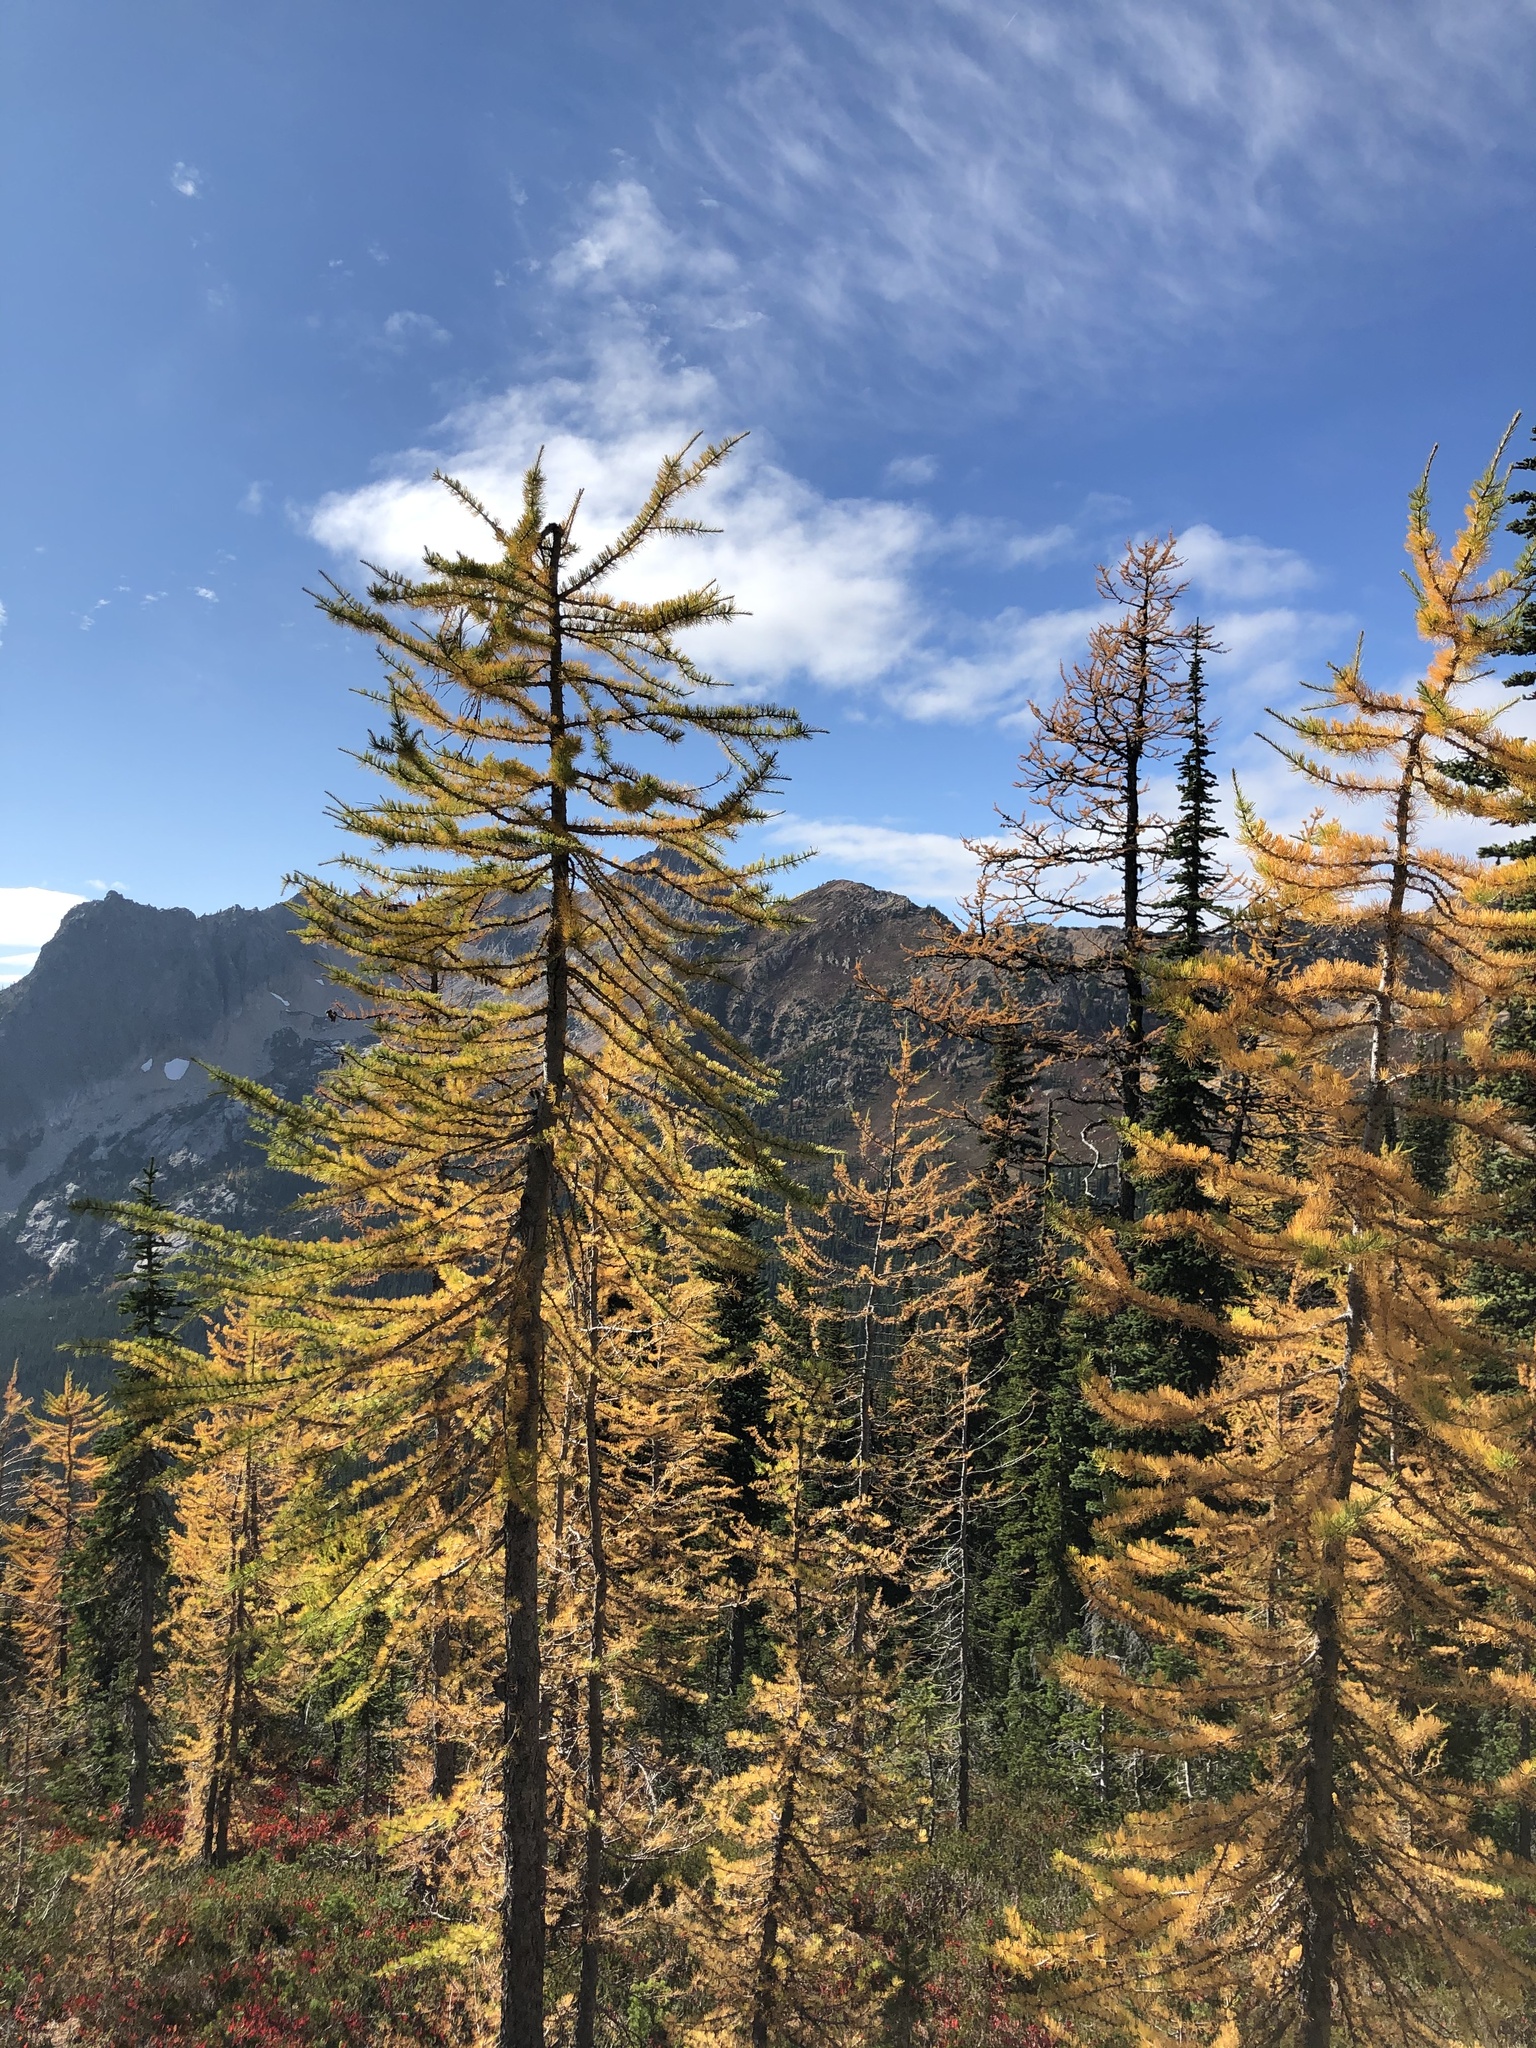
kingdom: Plantae
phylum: Tracheophyta
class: Pinopsida
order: Pinales
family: Pinaceae
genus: Larix
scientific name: Larix lyallii
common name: Alpine larch
